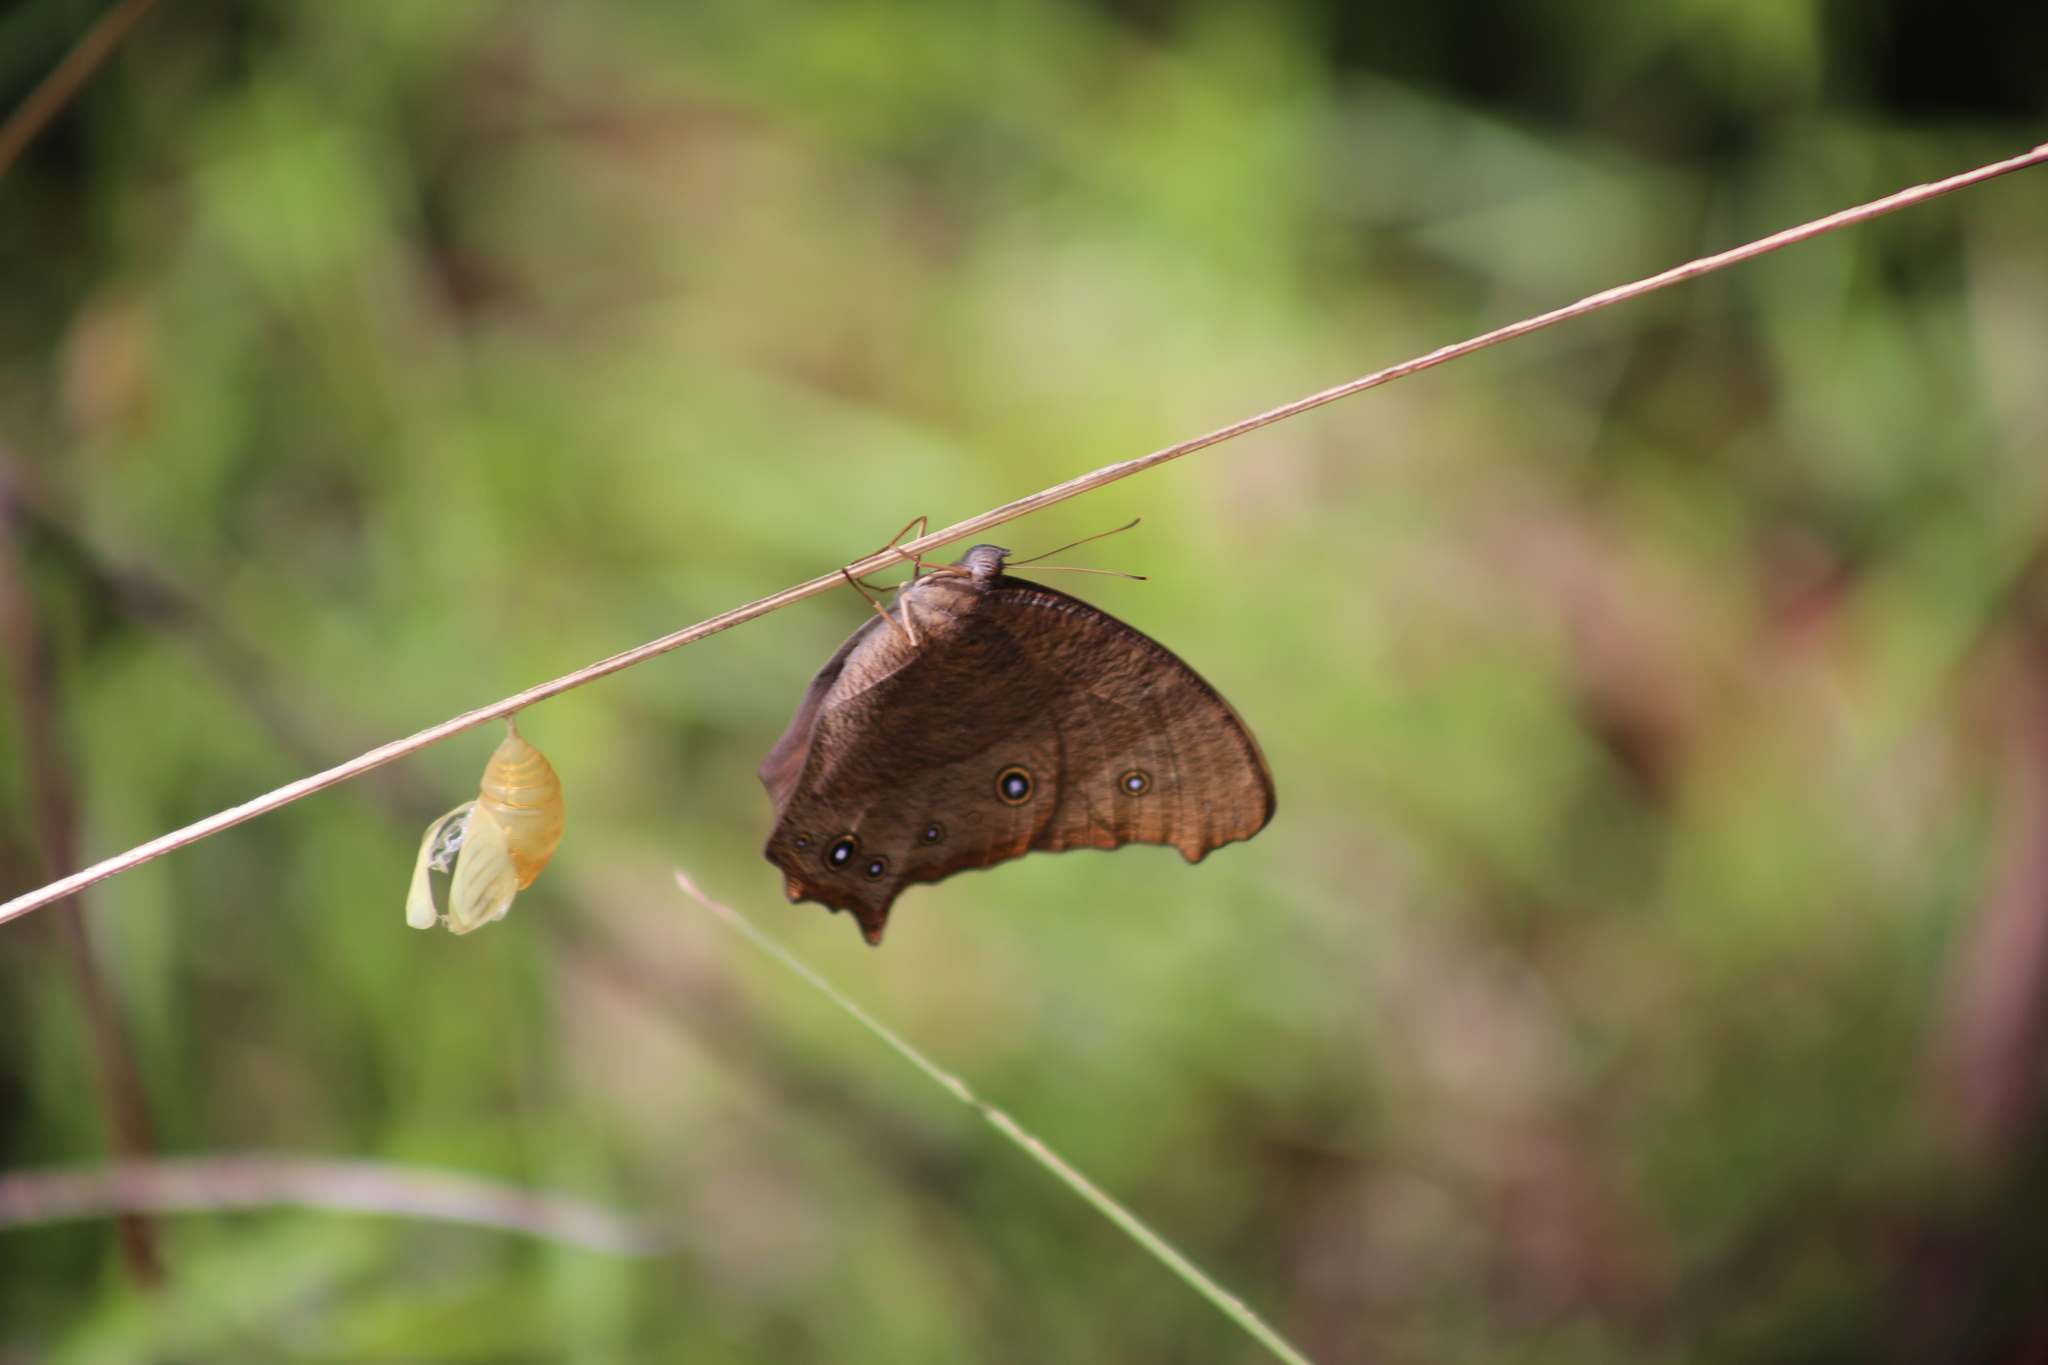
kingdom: Animalia
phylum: Arthropoda
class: Insecta
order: Lepidoptera
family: Nymphalidae
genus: Melanitis
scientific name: Melanitis leda
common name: Twilight brown
